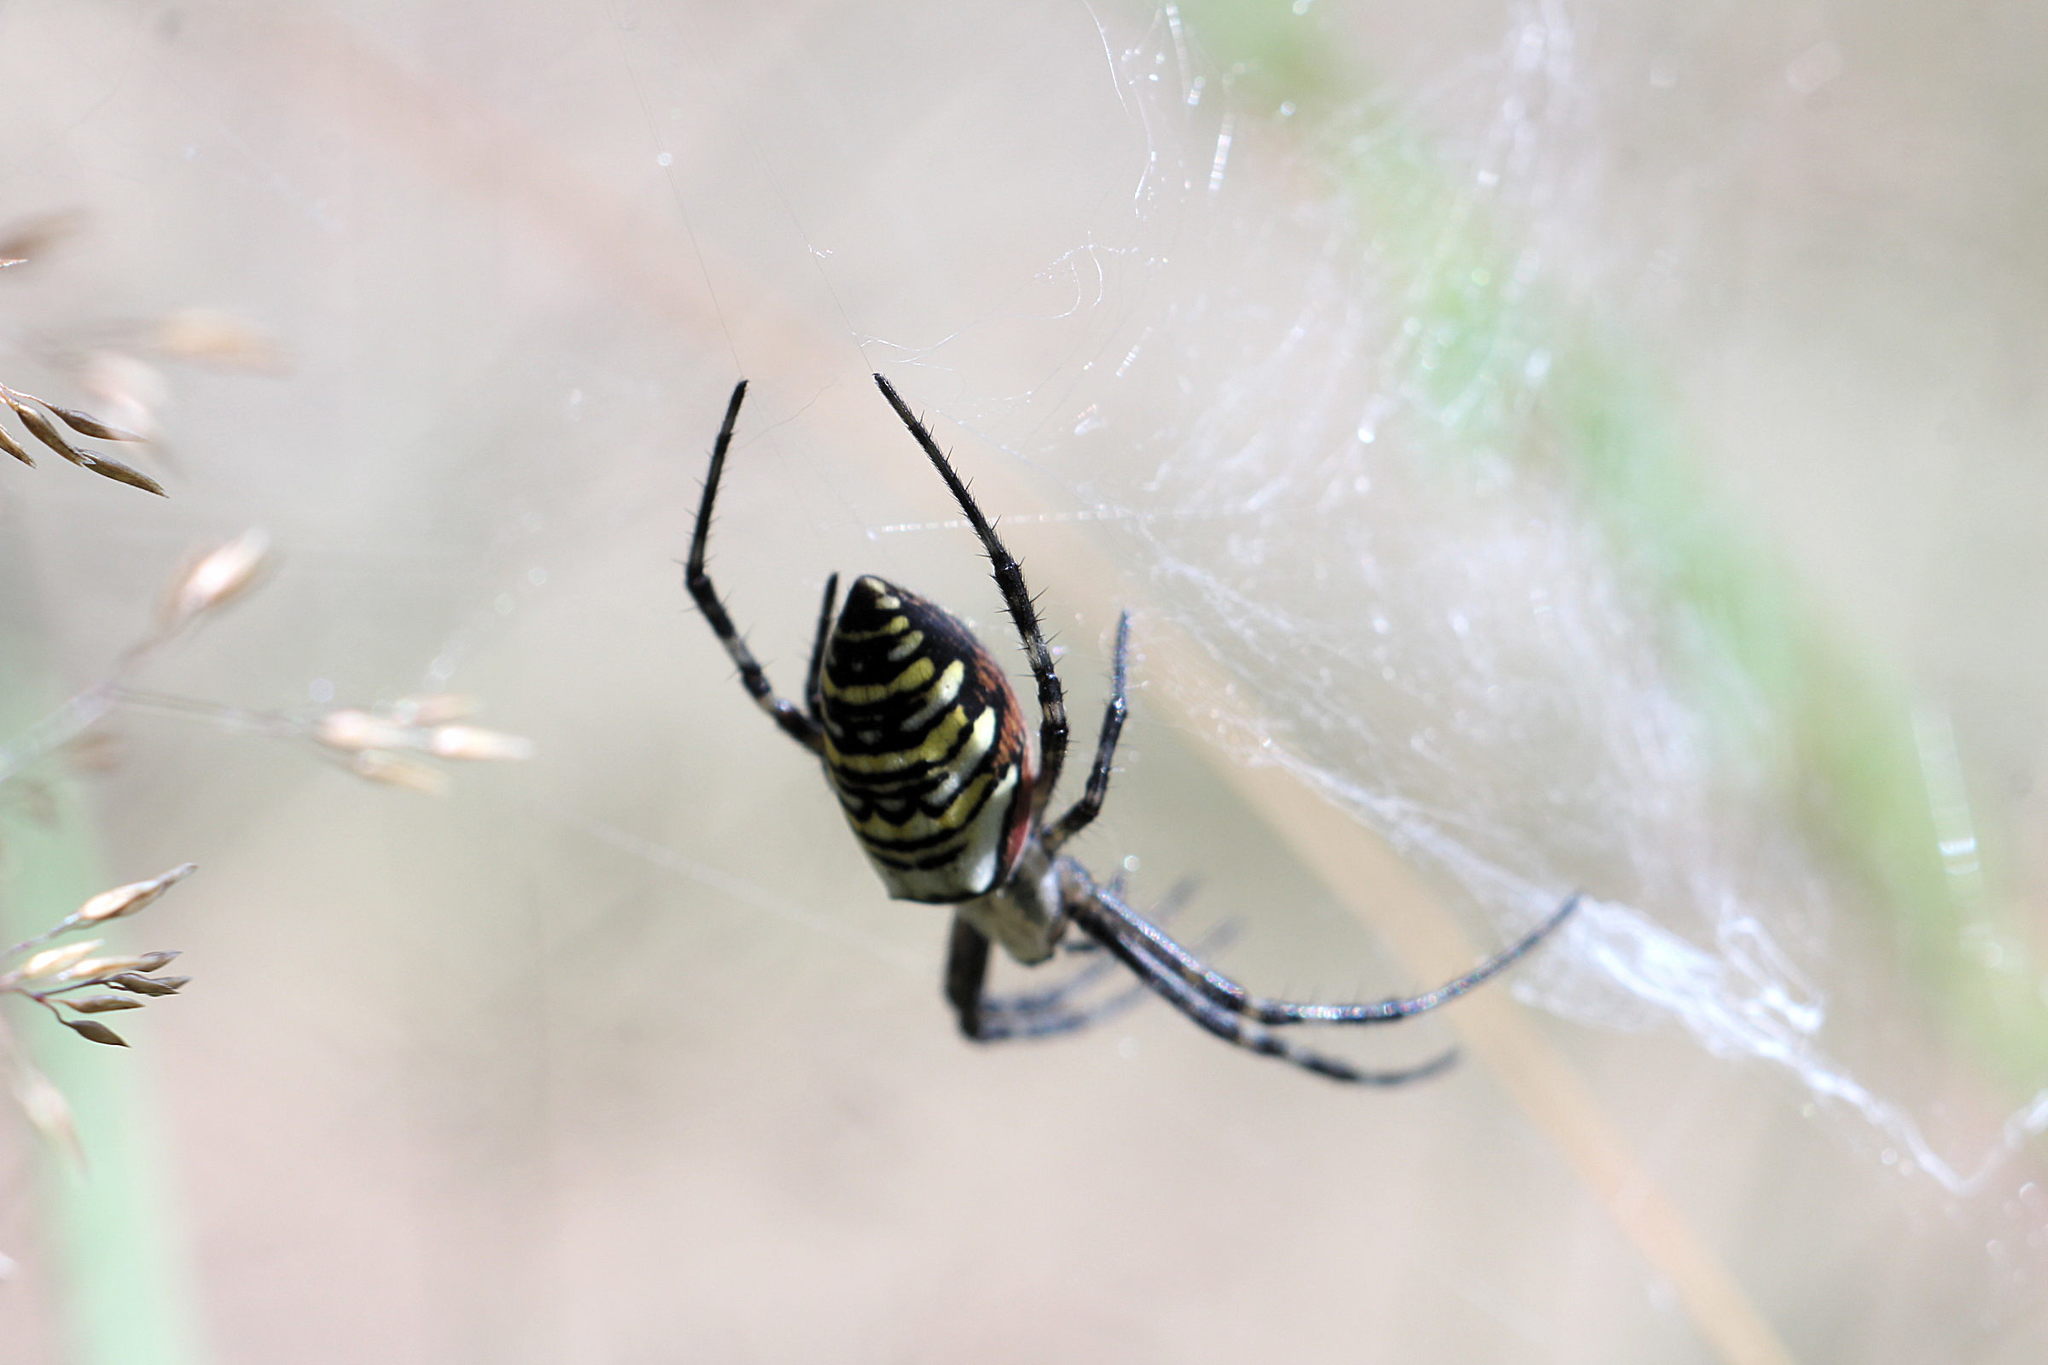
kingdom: Animalia
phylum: Arthropoda
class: Arachnida
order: Araneae
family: Araneidae
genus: Argiope
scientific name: Argiope bruennichi
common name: Wasp spider
